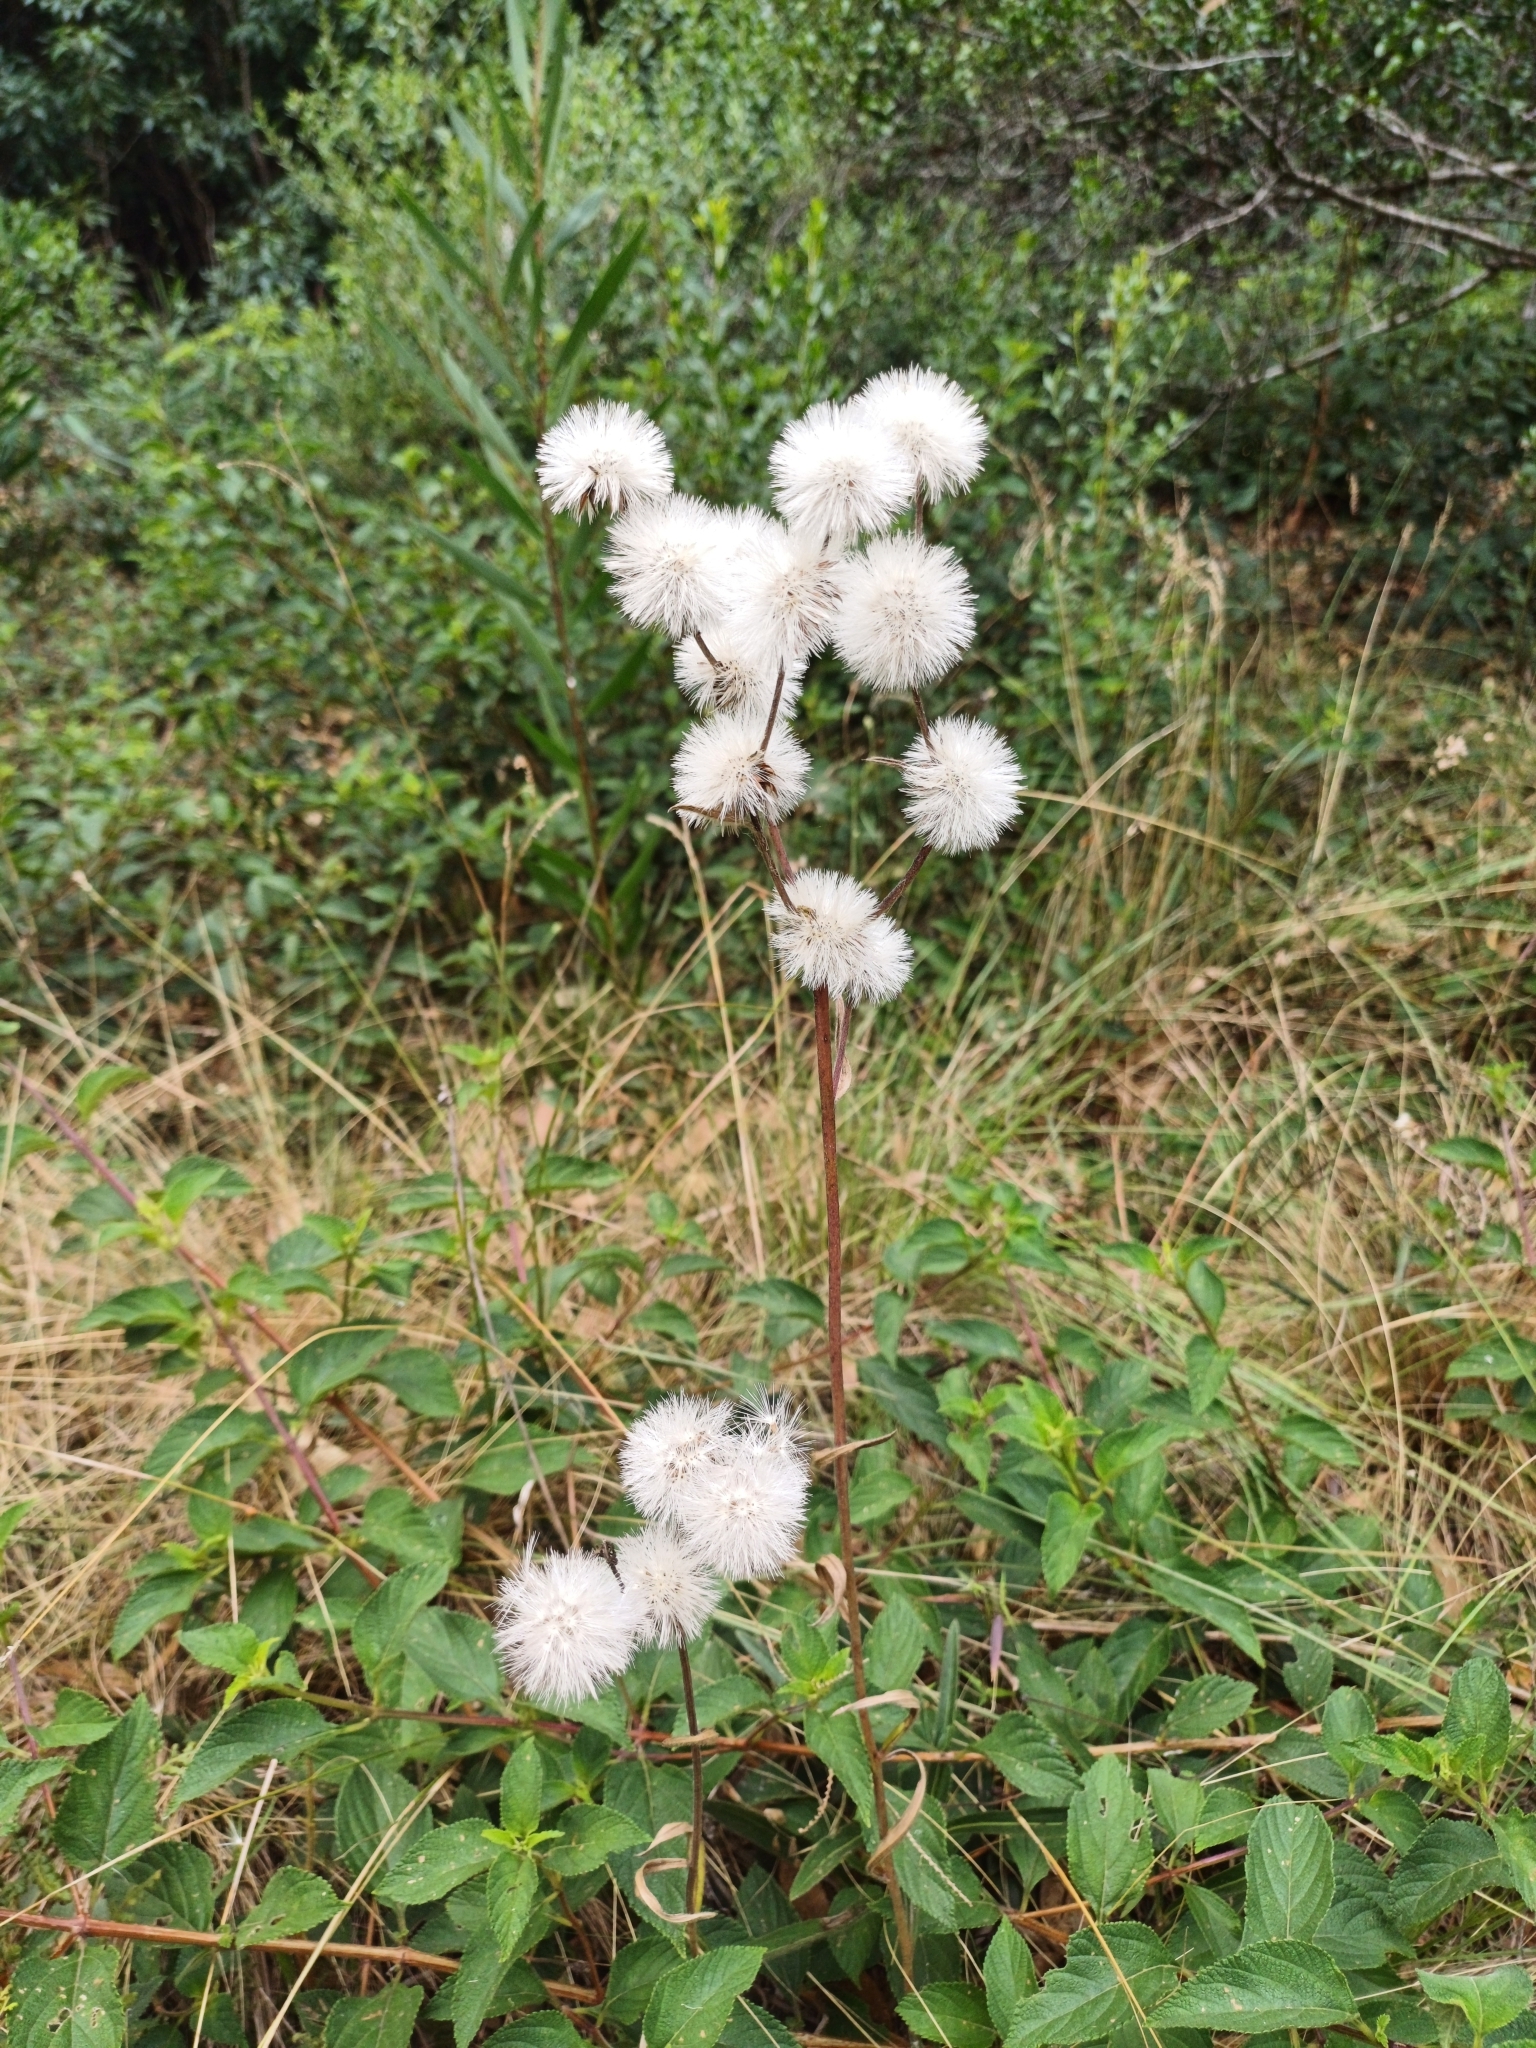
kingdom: Plantae
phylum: Tracheophyta
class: Magnoliopsida
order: Asterales
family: Asteraceae
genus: Chrysolaena
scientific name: Chrysolaena flexuosa
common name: Zig-zag vernonia
